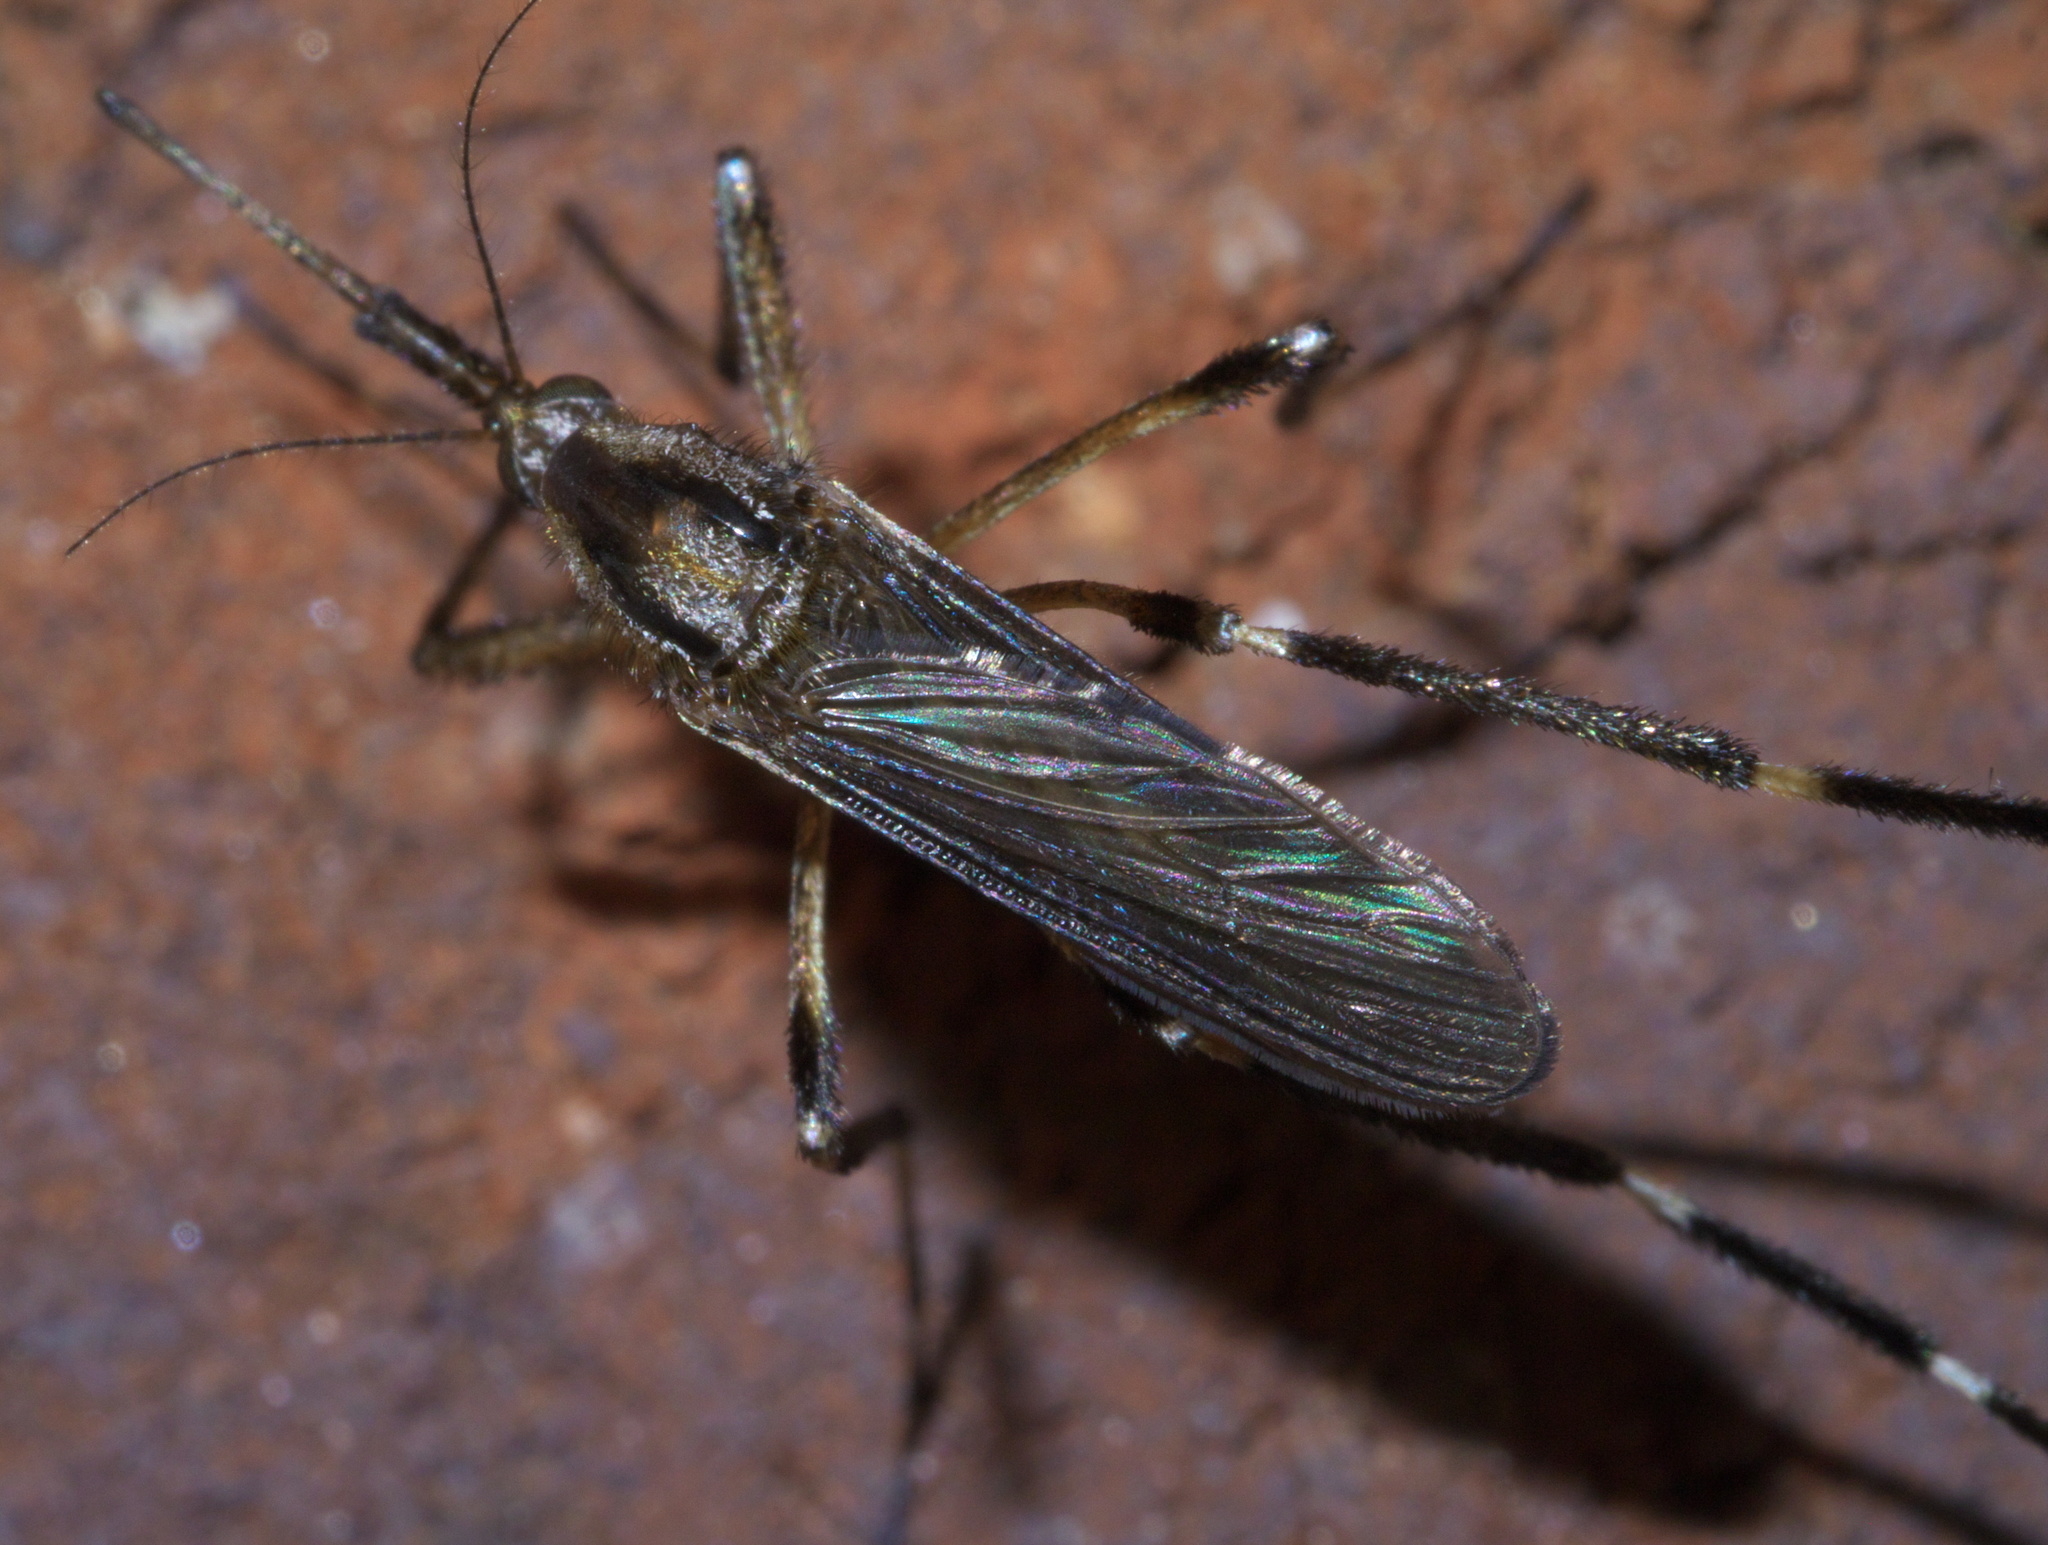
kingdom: Animalia
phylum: Arthropoda
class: Insecta
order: Diptera
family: Culicidae
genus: Psorophora
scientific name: Psorophora ciliata
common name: Gallinipper
